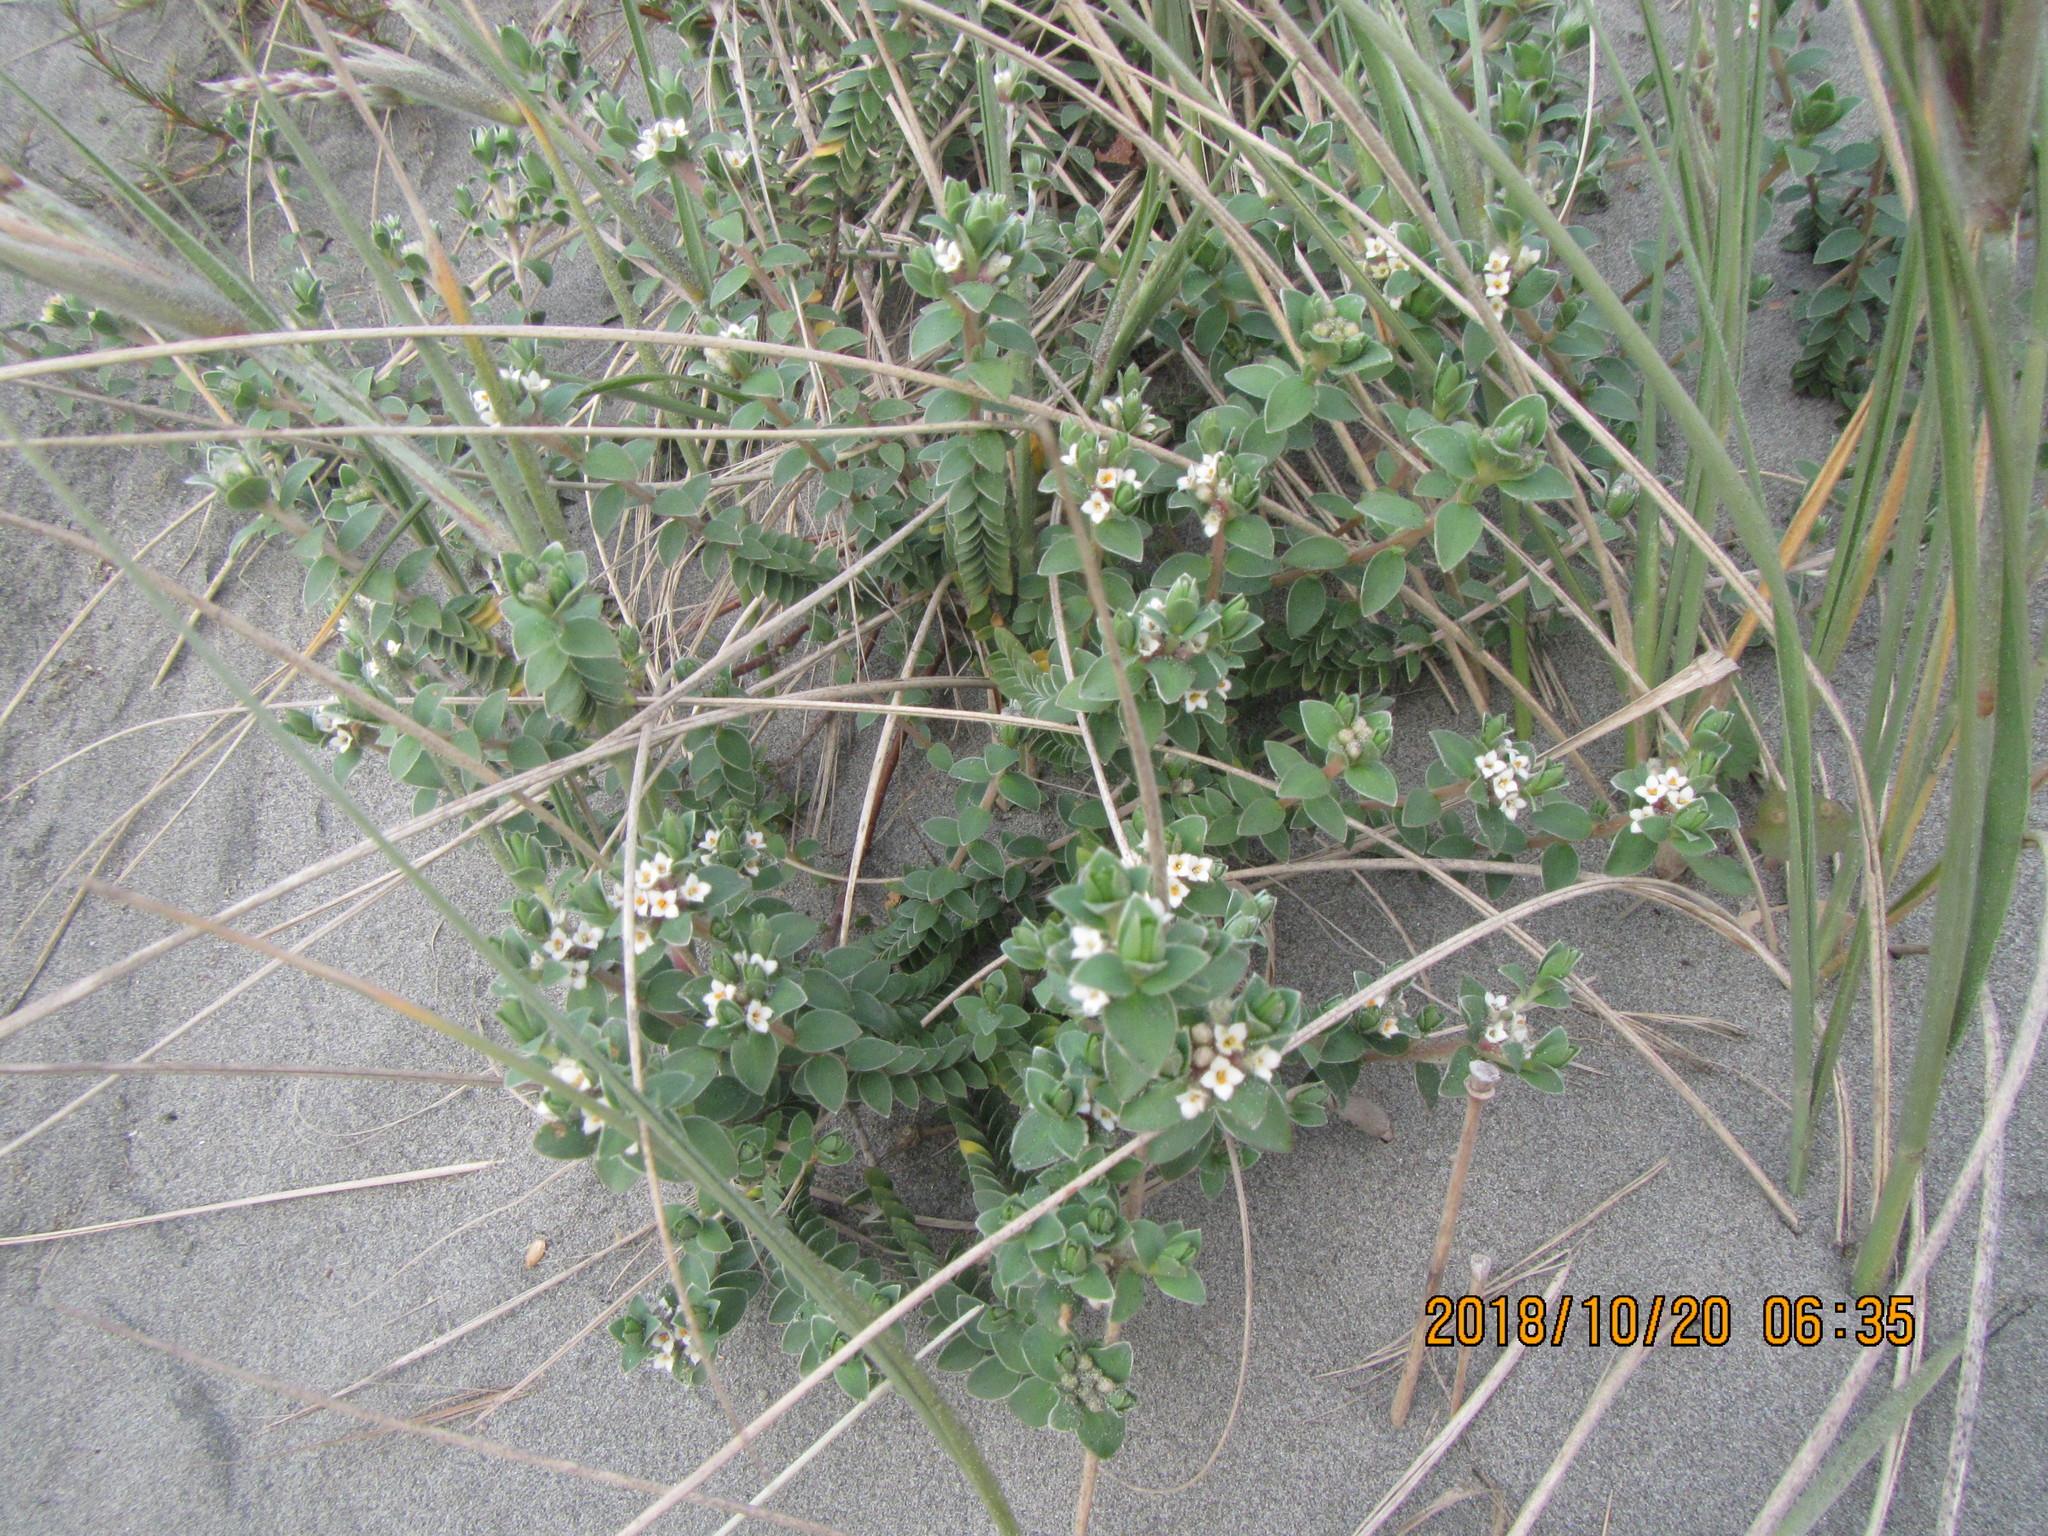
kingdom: Plantae
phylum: Tracheophyta
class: Magnoliopsida
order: Malvales
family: Thymelaeaceae
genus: Pimelea
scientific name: Pimelea villosa
